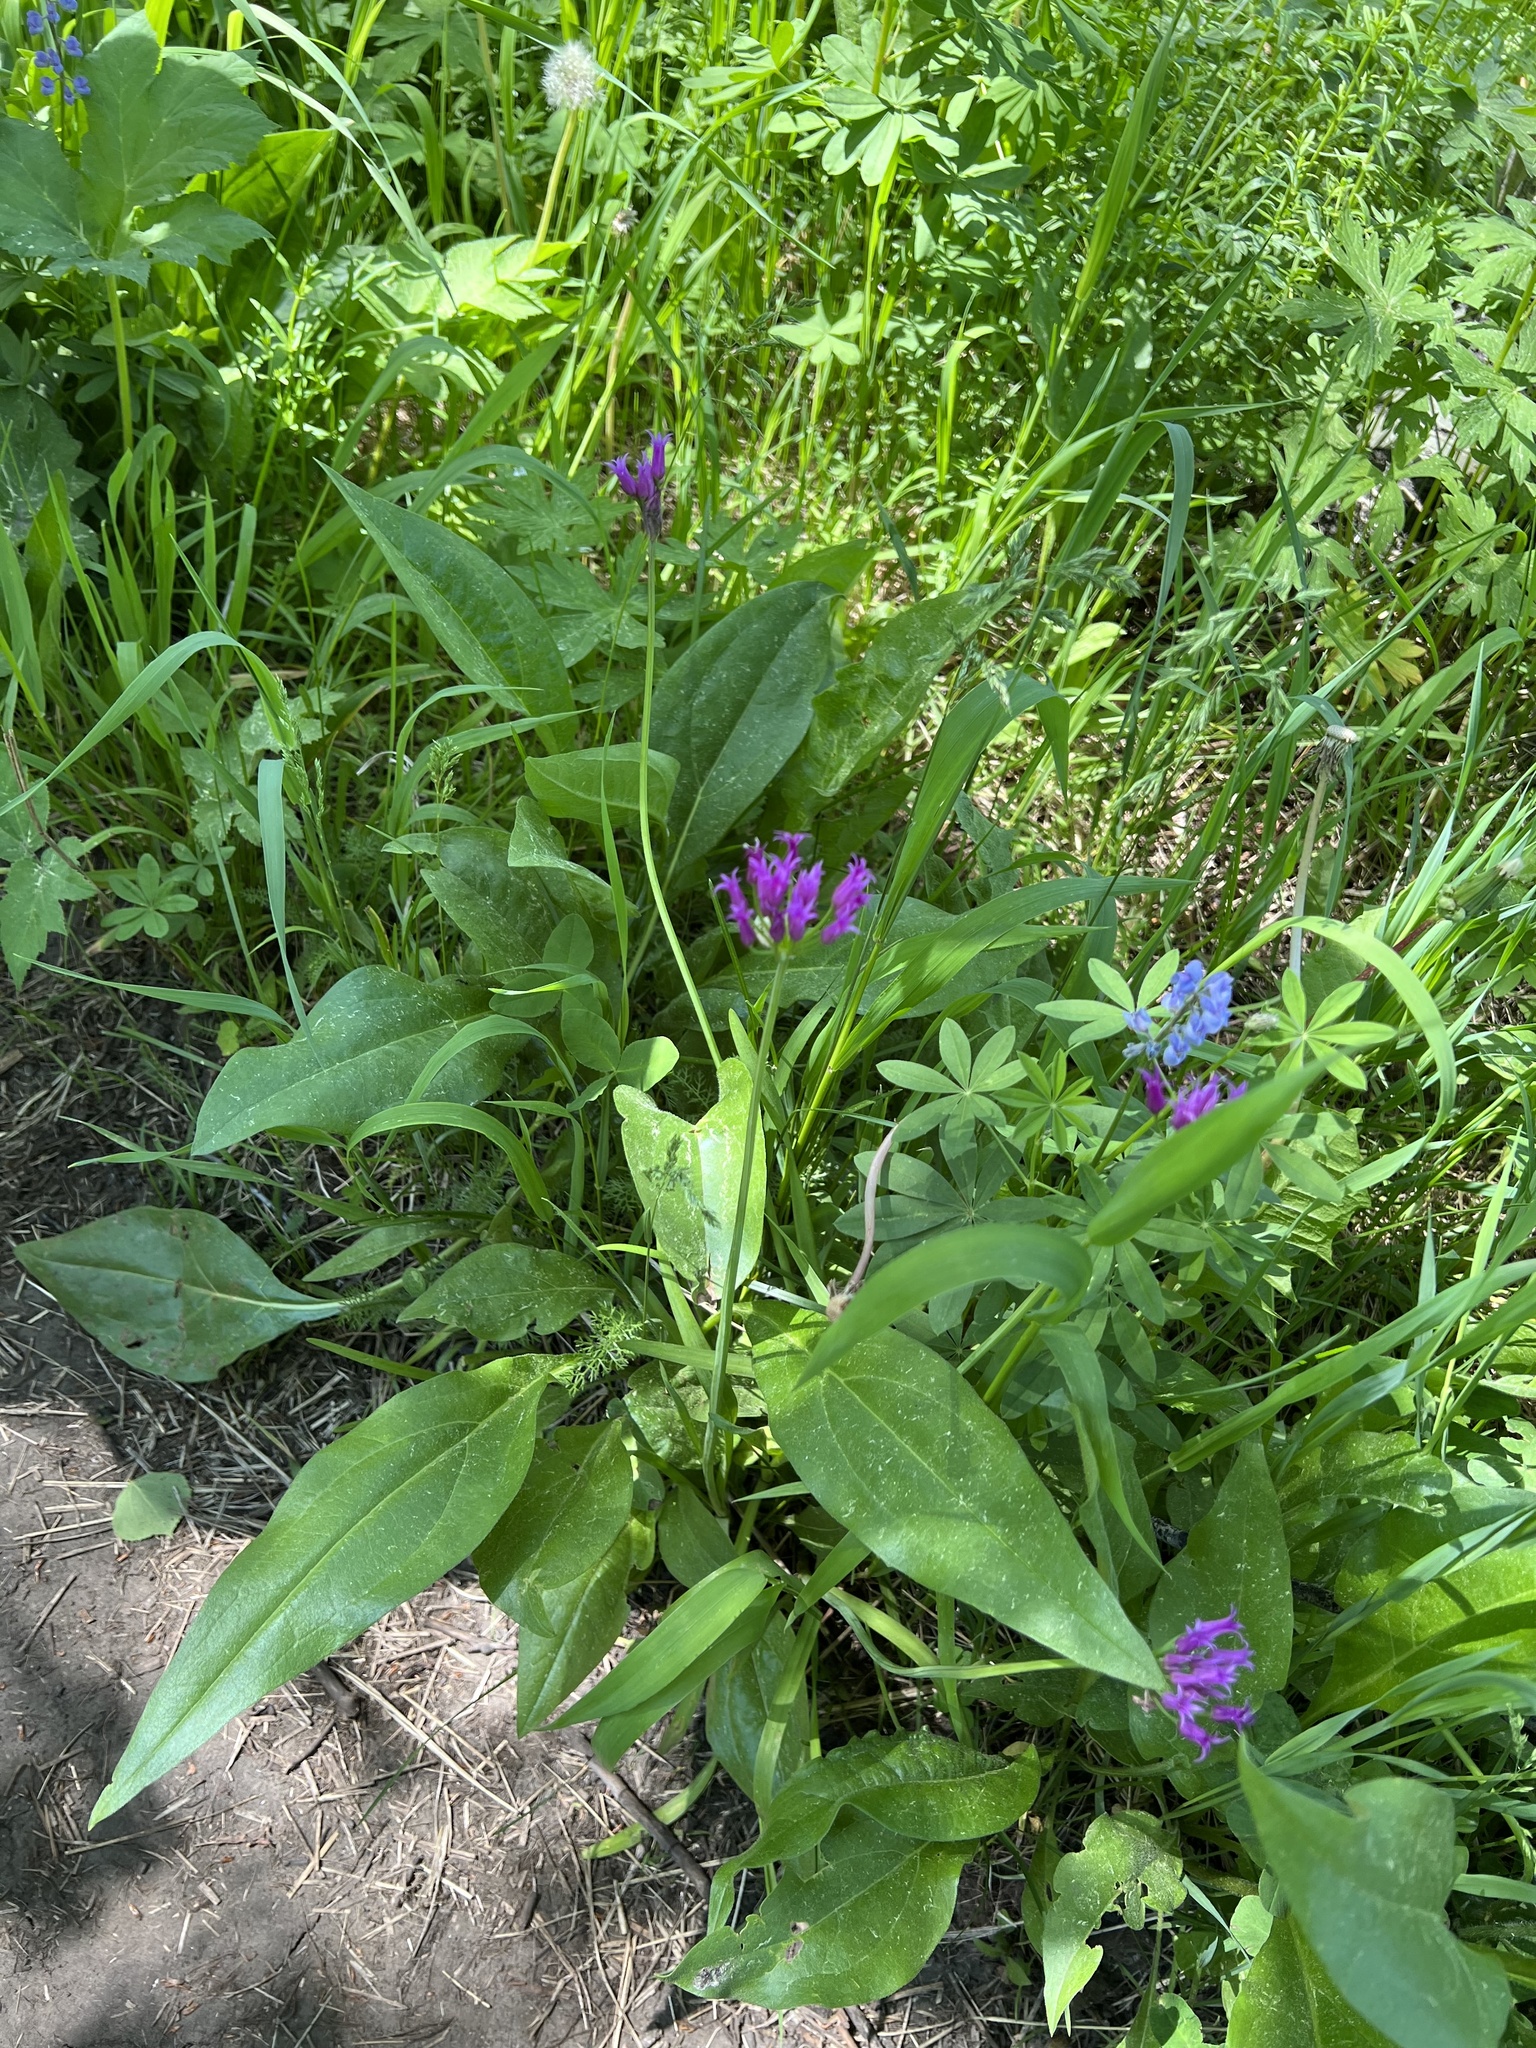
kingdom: Plantae
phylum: Tracheophyta
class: Liliopsida
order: Asparagales
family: Amaryllidaceae
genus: Allium
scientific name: Allium brevistylum
